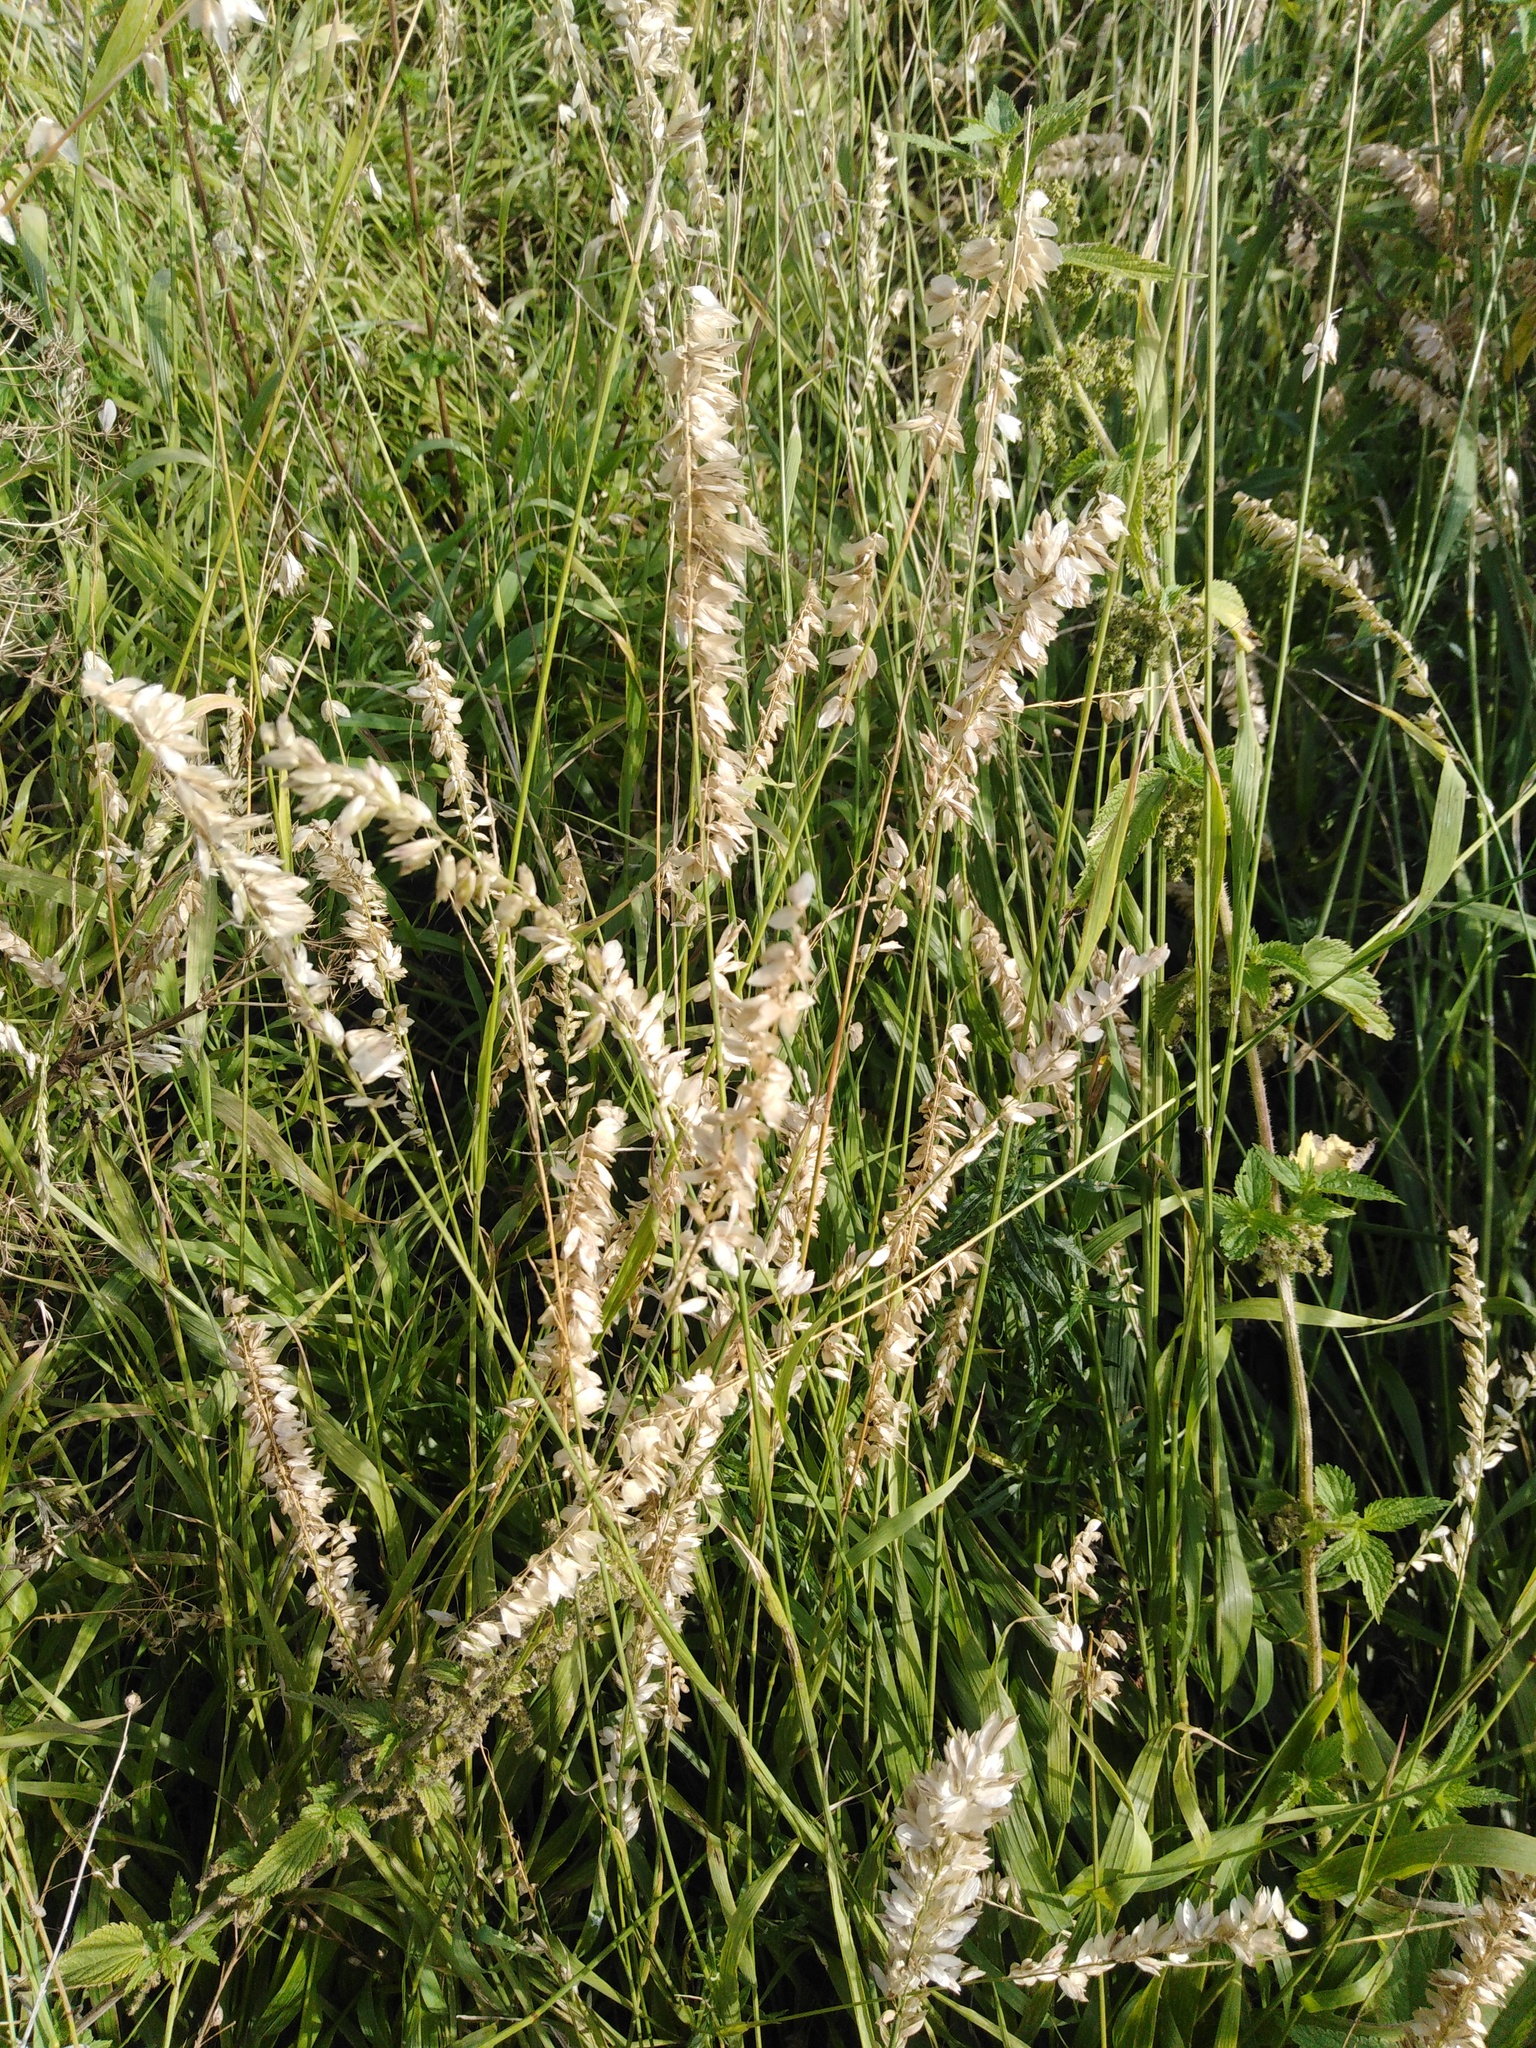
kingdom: Plantae
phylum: Tracheophyta
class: Liliopsida
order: Poales
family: Poaceae
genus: Melica
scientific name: Melica altissima
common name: Siberian melicgrass
